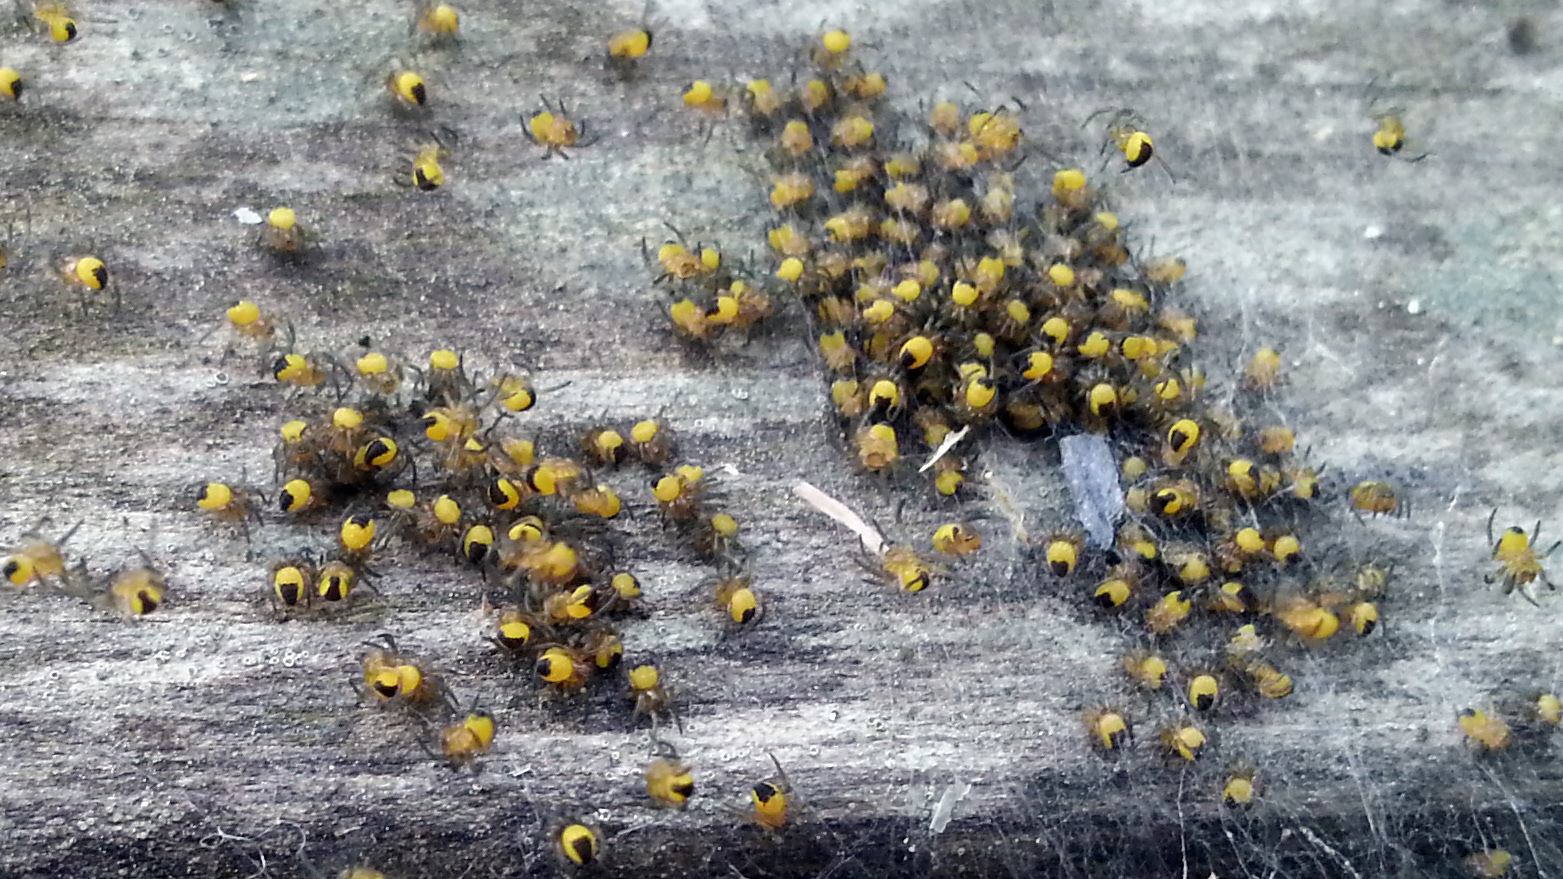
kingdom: Animalia
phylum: Arthropoda
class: Arachnida
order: Araneae
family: Araneidae
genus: Araneus
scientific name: Araneus diadematus
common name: Cross orbweaver
